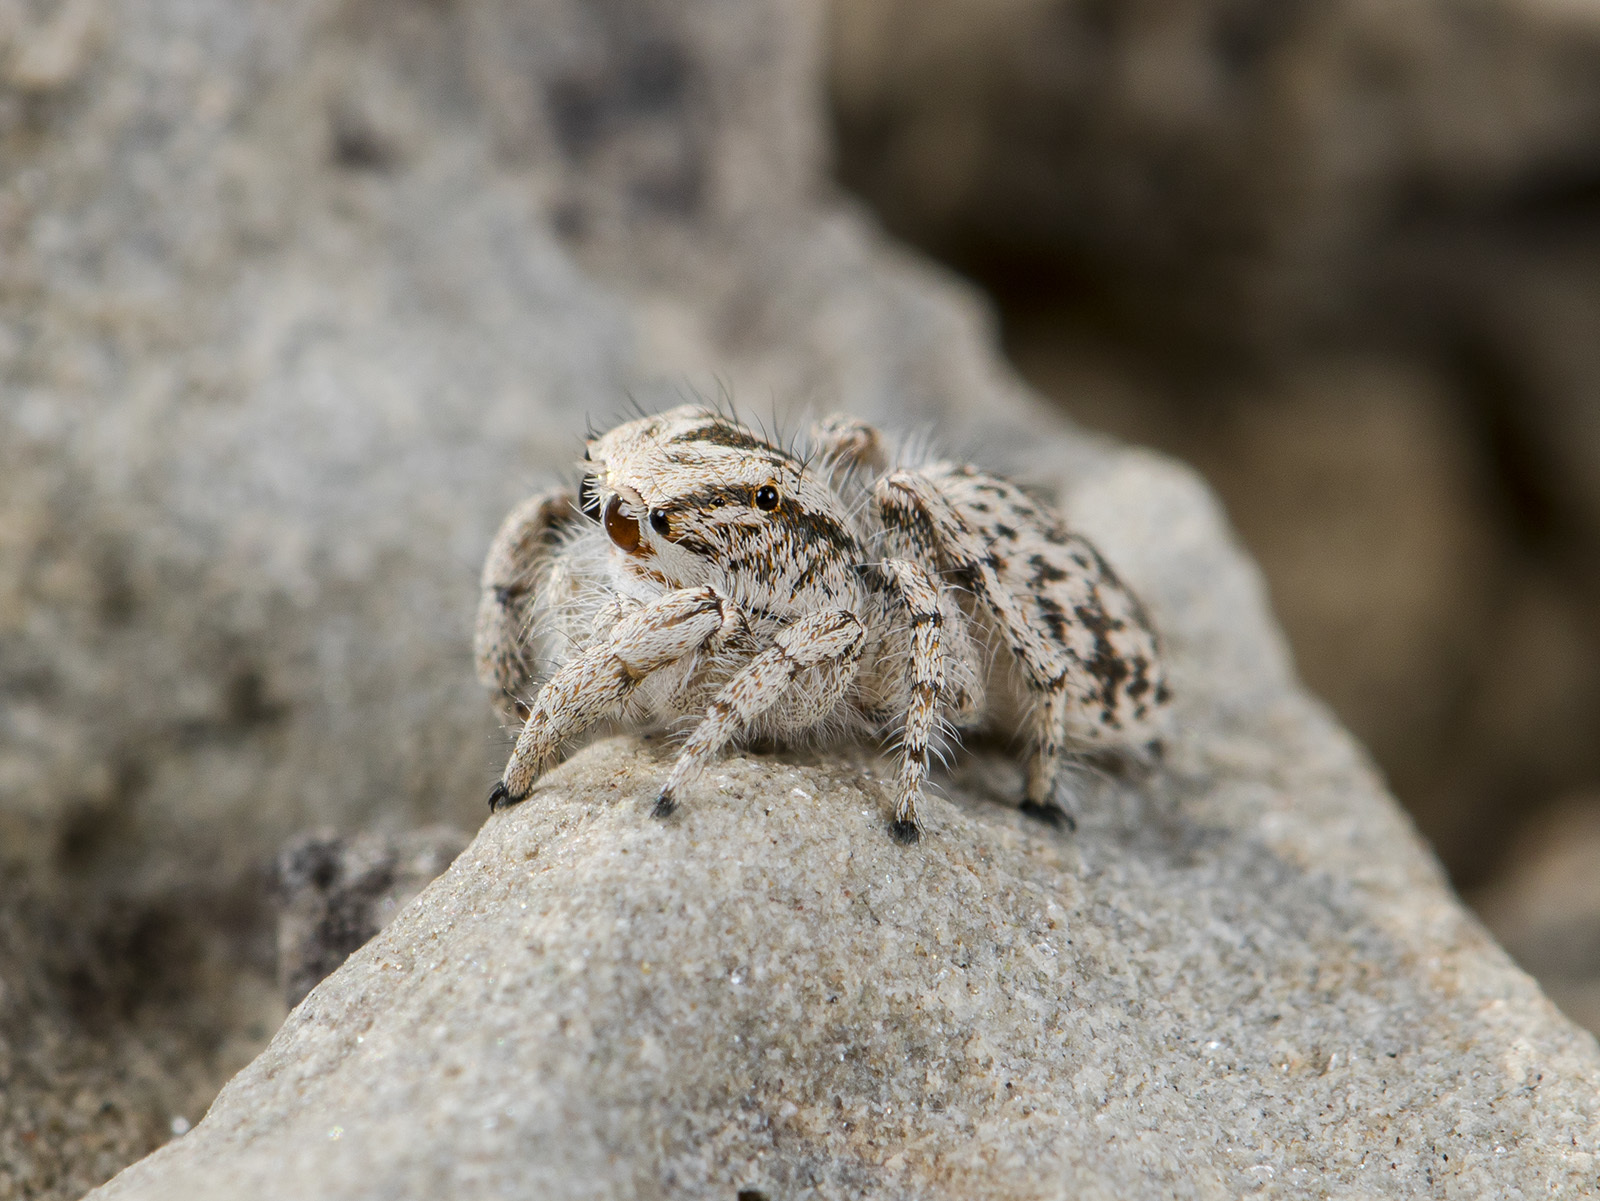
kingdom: Animalia
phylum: Arthropoda
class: Arachnida
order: Araneae
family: Salticidae
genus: Marusyllus
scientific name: Marusyllus aralicus
